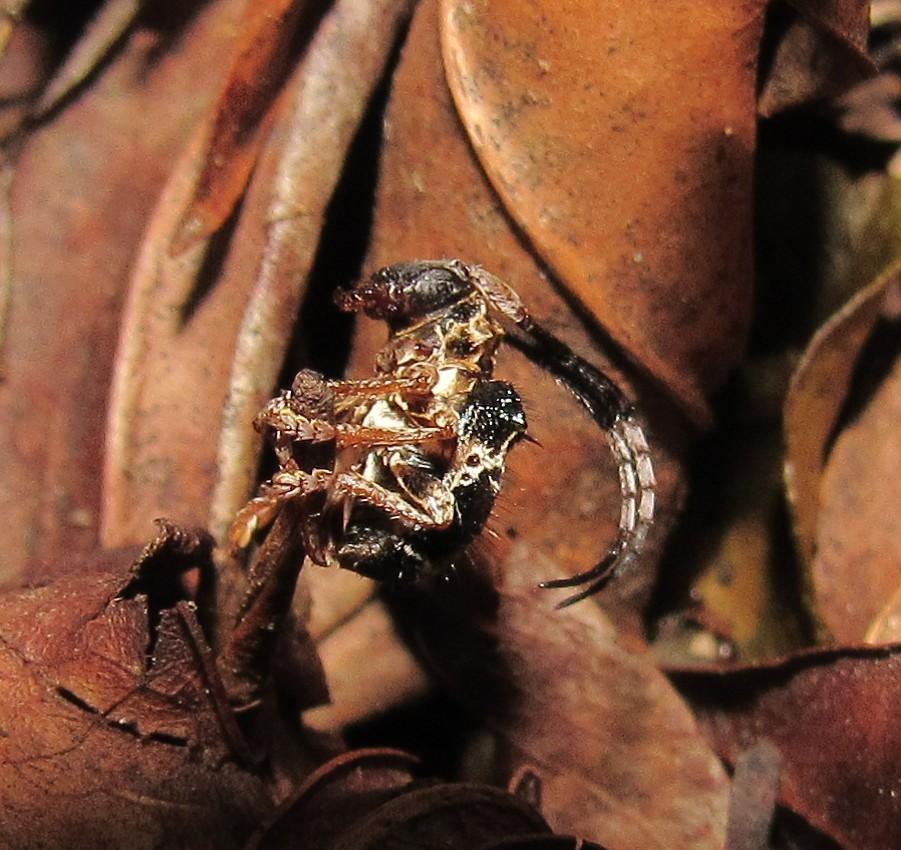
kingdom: Animalia
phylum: Arthropoda
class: Insecta
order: Coleoptera
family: Cerambycidae
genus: Tessarecphora
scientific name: Tessarecphora arachnoides
